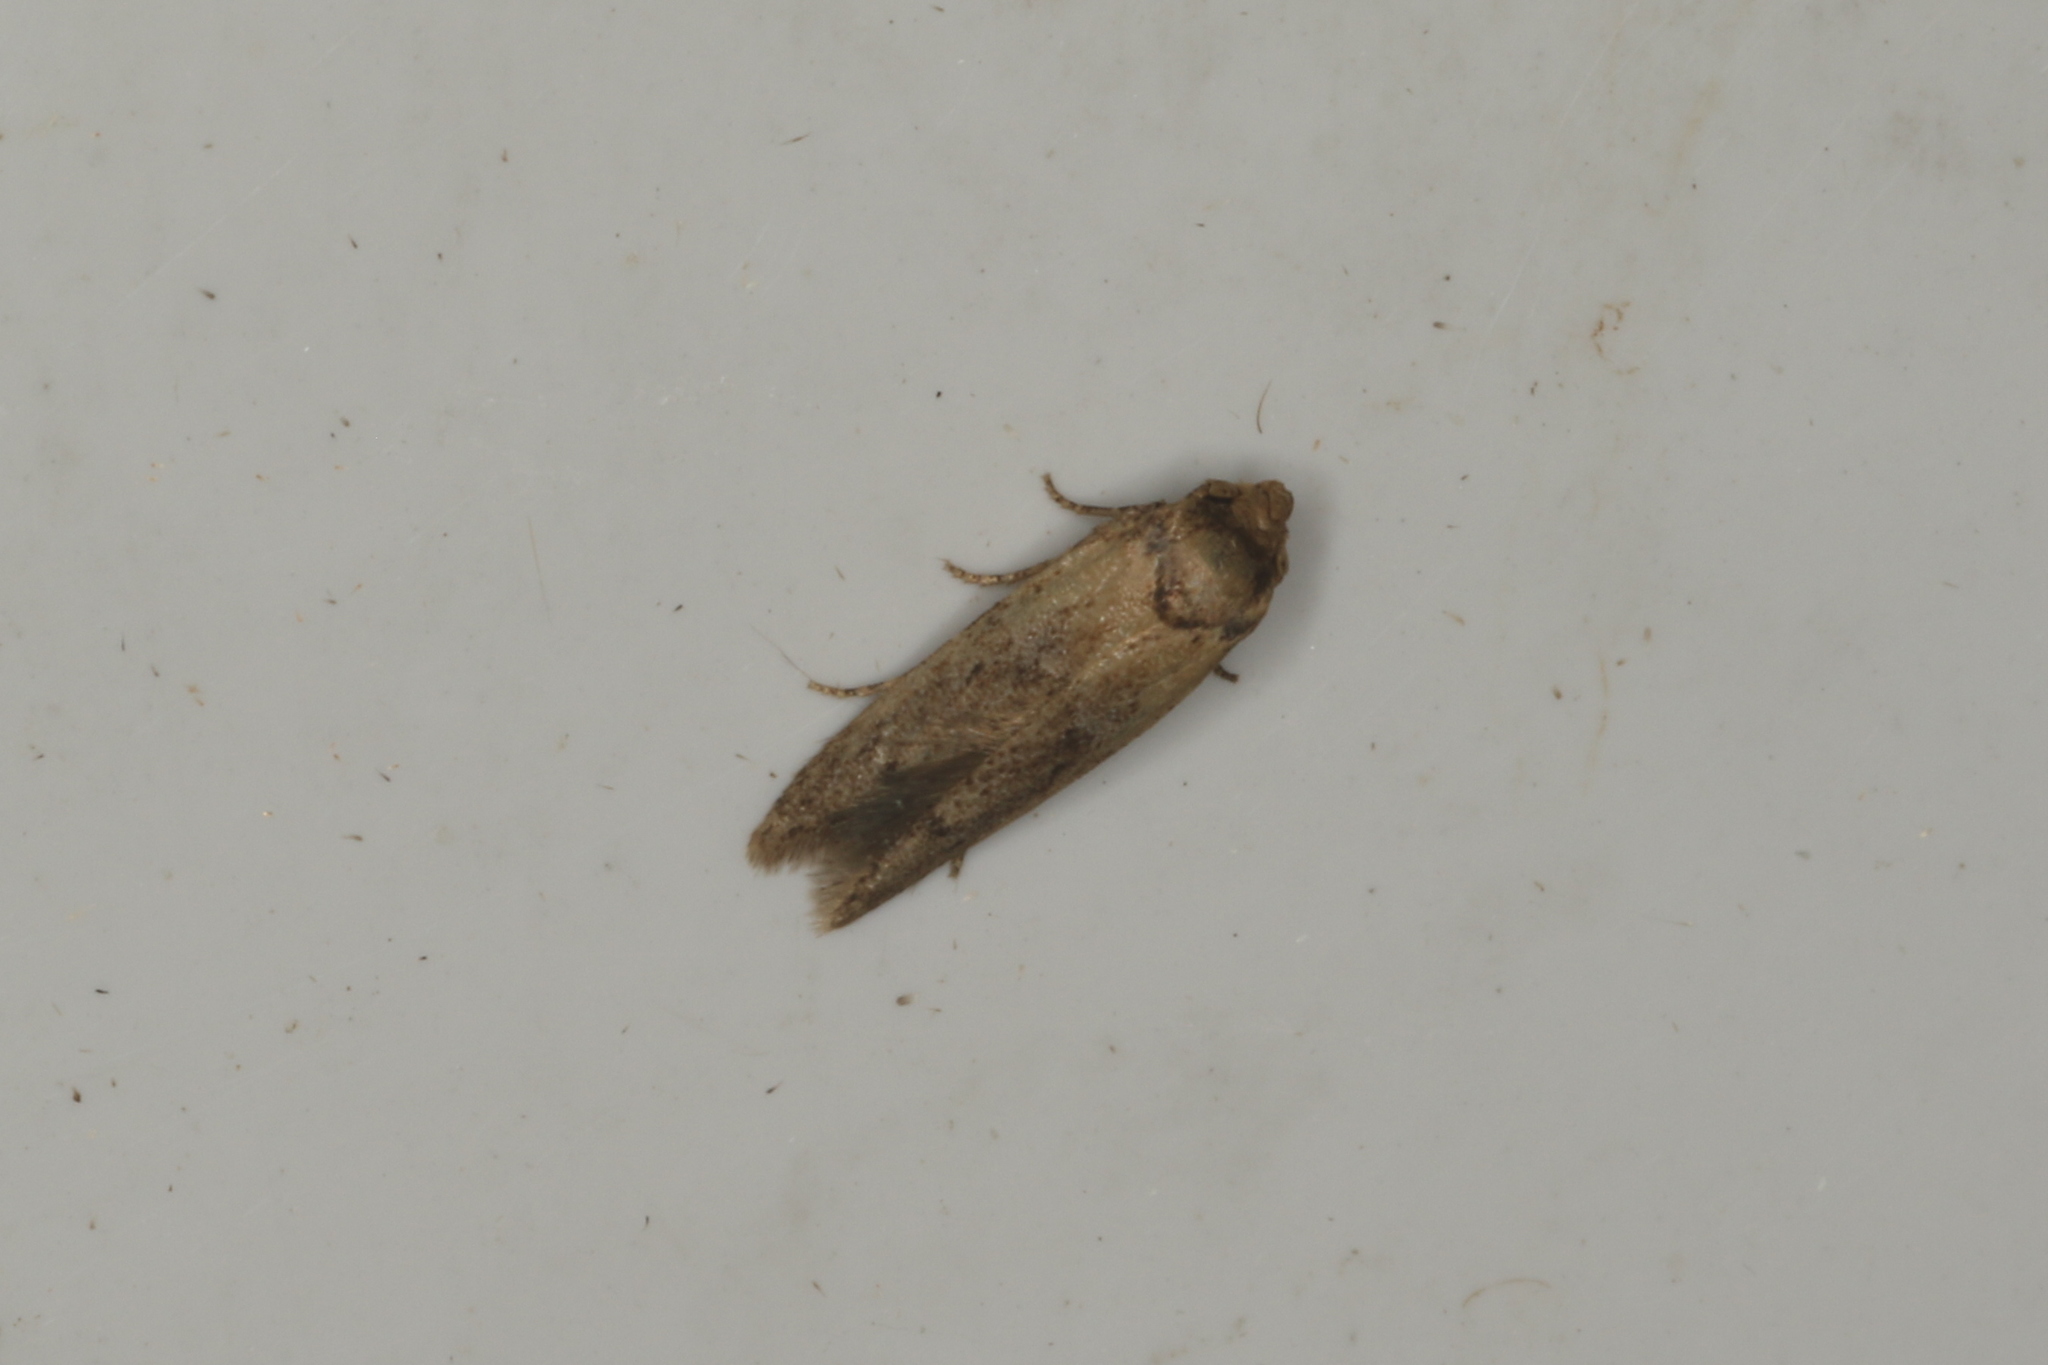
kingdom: Animalia
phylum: Arthropoda
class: Insecta
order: Lepidoptera
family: Blastobasidae
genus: Blastobasis
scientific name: Blastobasis tarda
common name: Blastobasid moth
